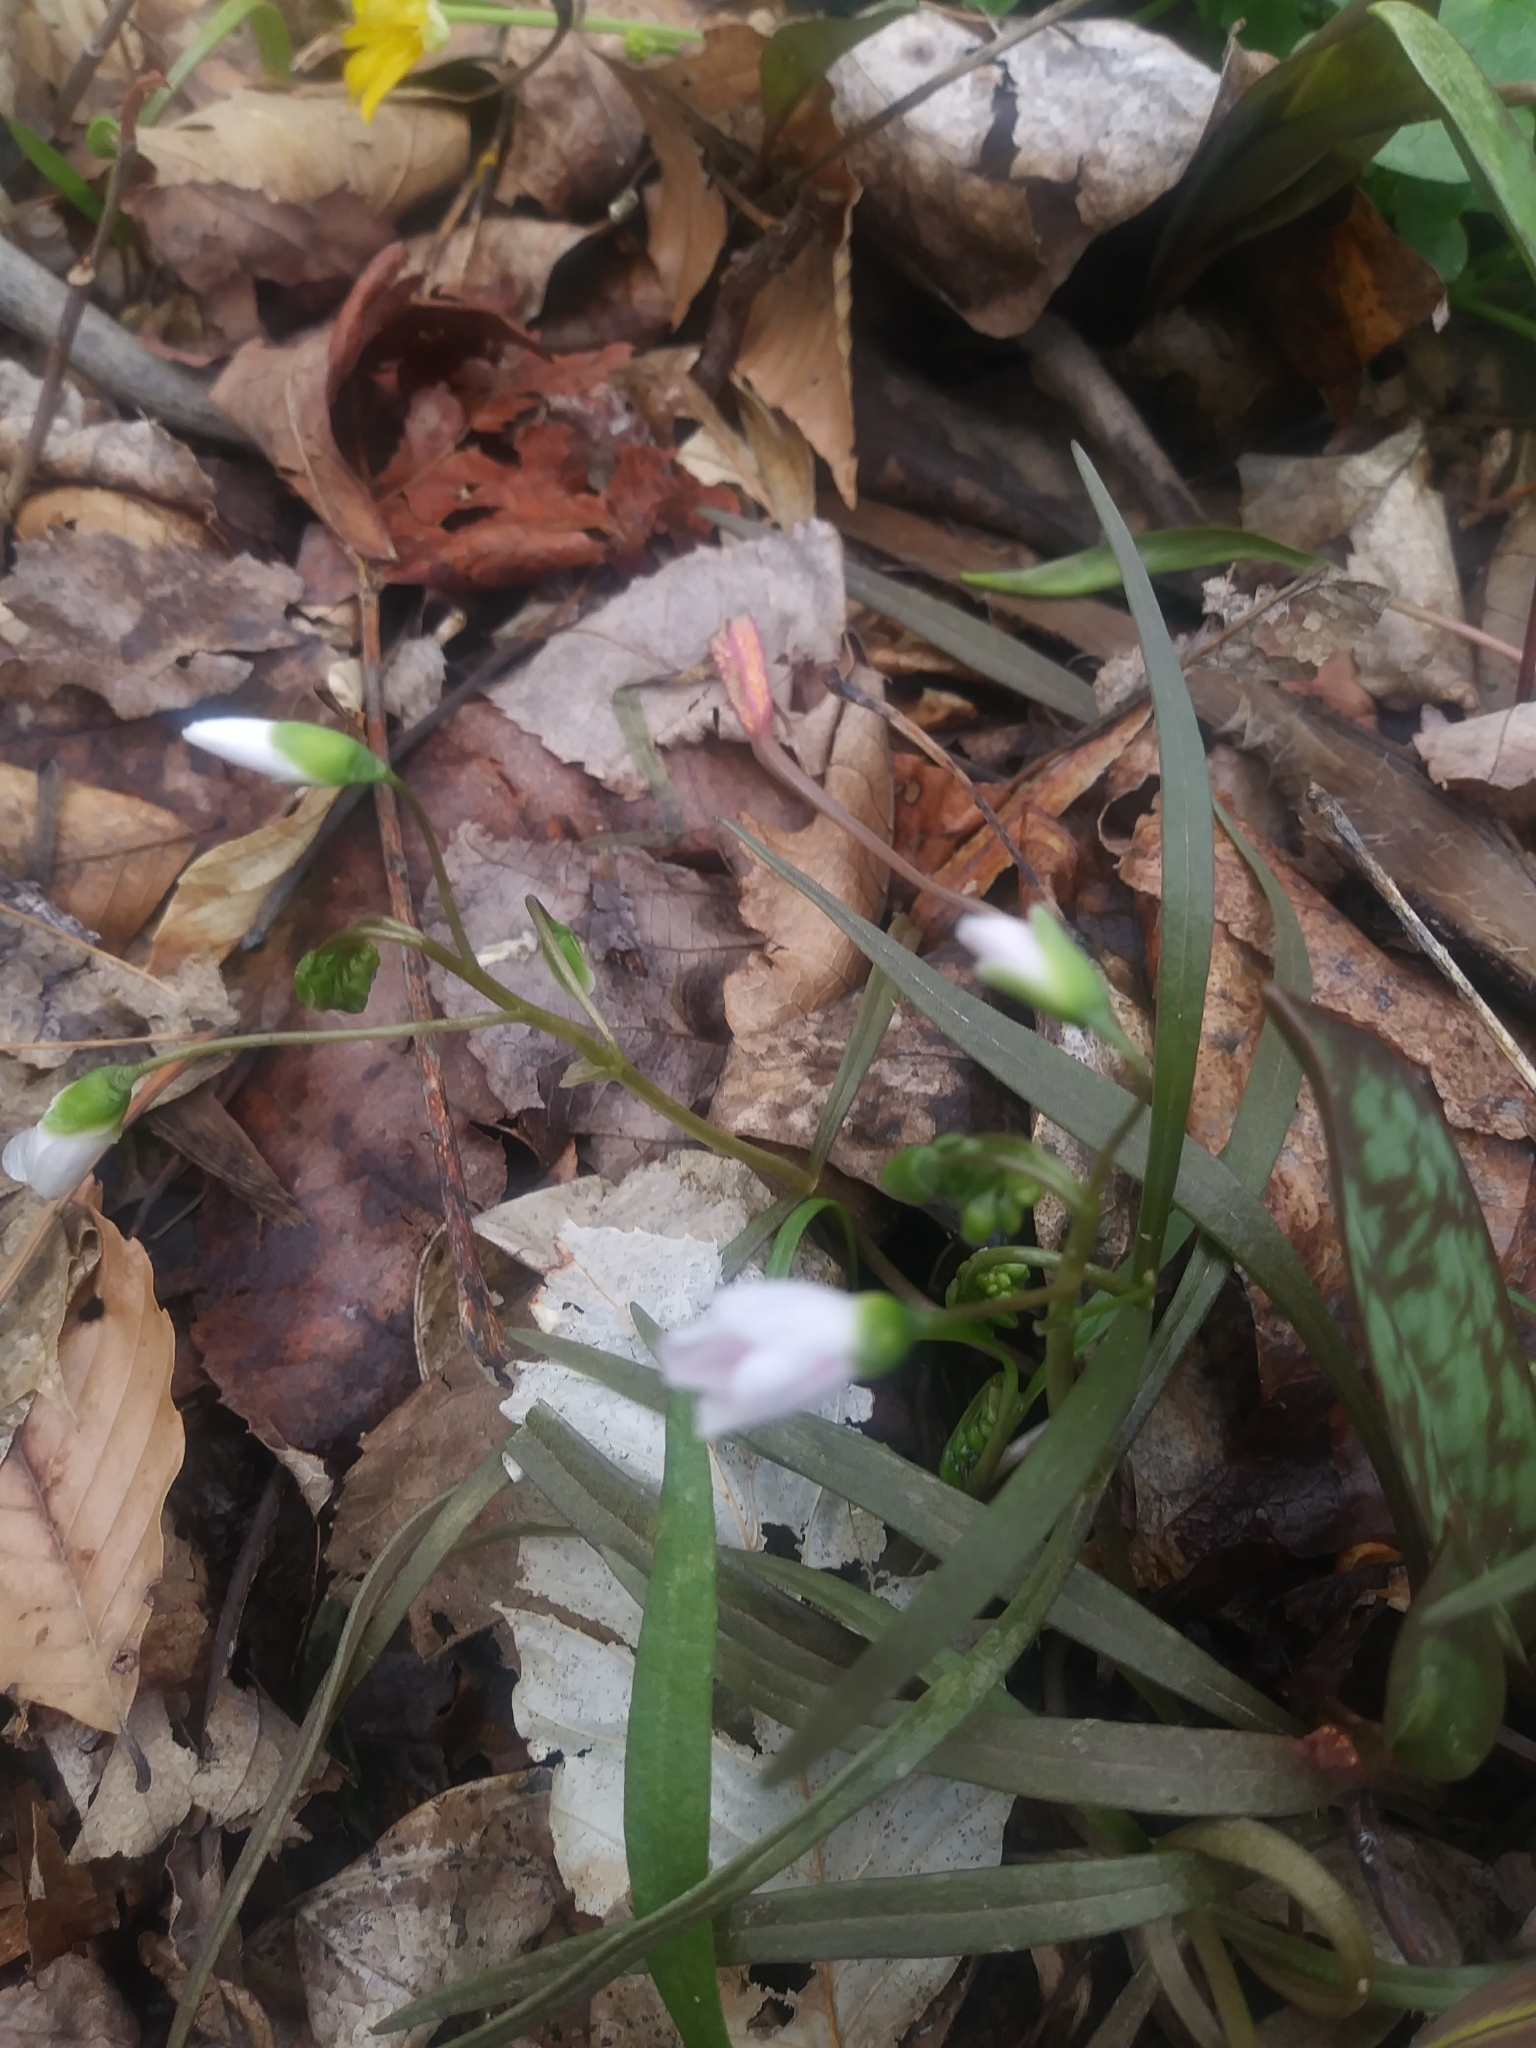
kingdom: Plantae
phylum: Tracheophyta
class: Magnoliopsida
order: Caryophyllales
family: Montiaceae
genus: Claytonia
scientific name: Claytonia virginica
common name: Virginia springbeauty
